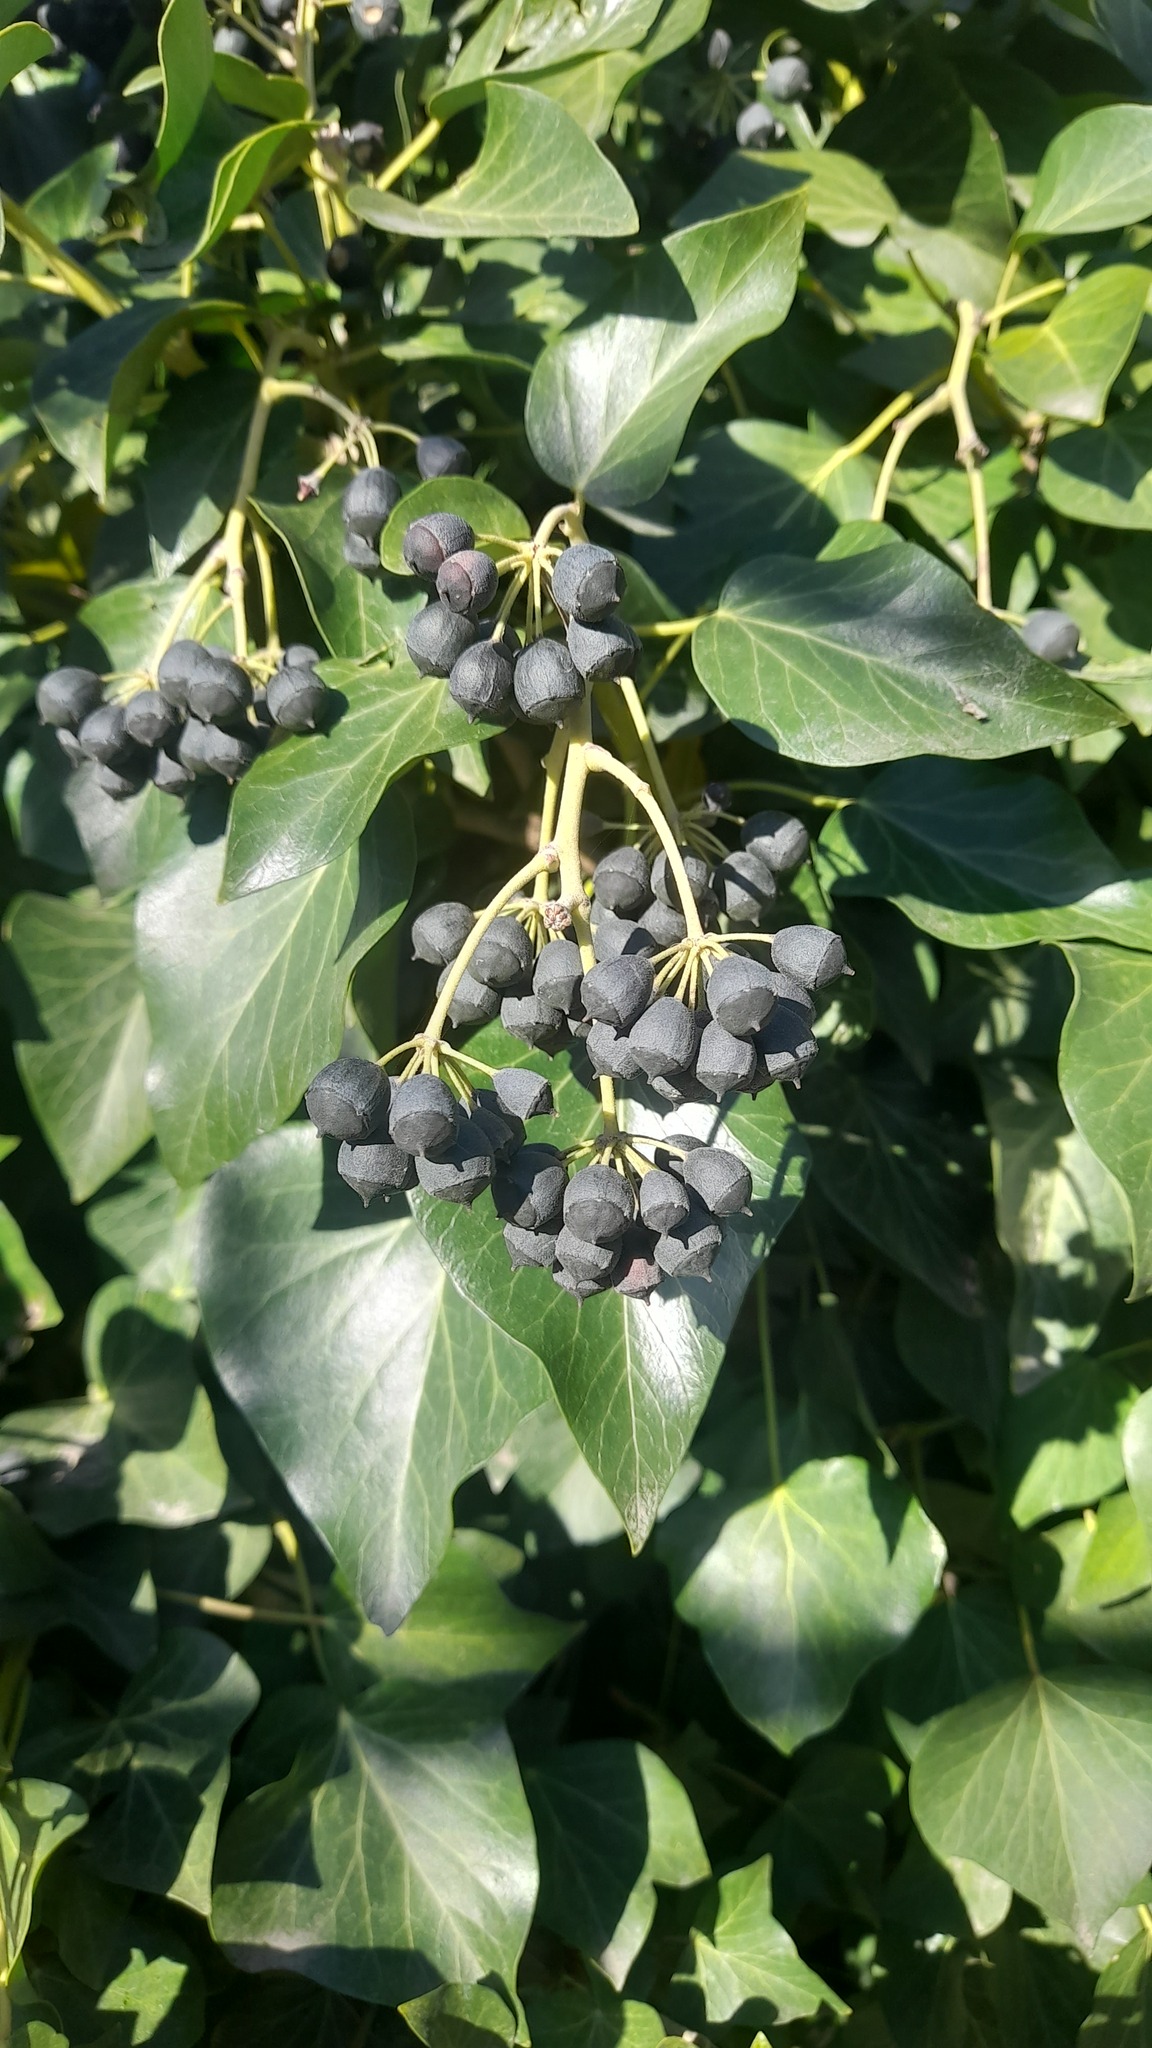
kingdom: Plantae
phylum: Tracheophyta
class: Magnoliopsida
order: Apiales
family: Araliaceae
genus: Hedera
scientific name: Hedera helix
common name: Ivy
